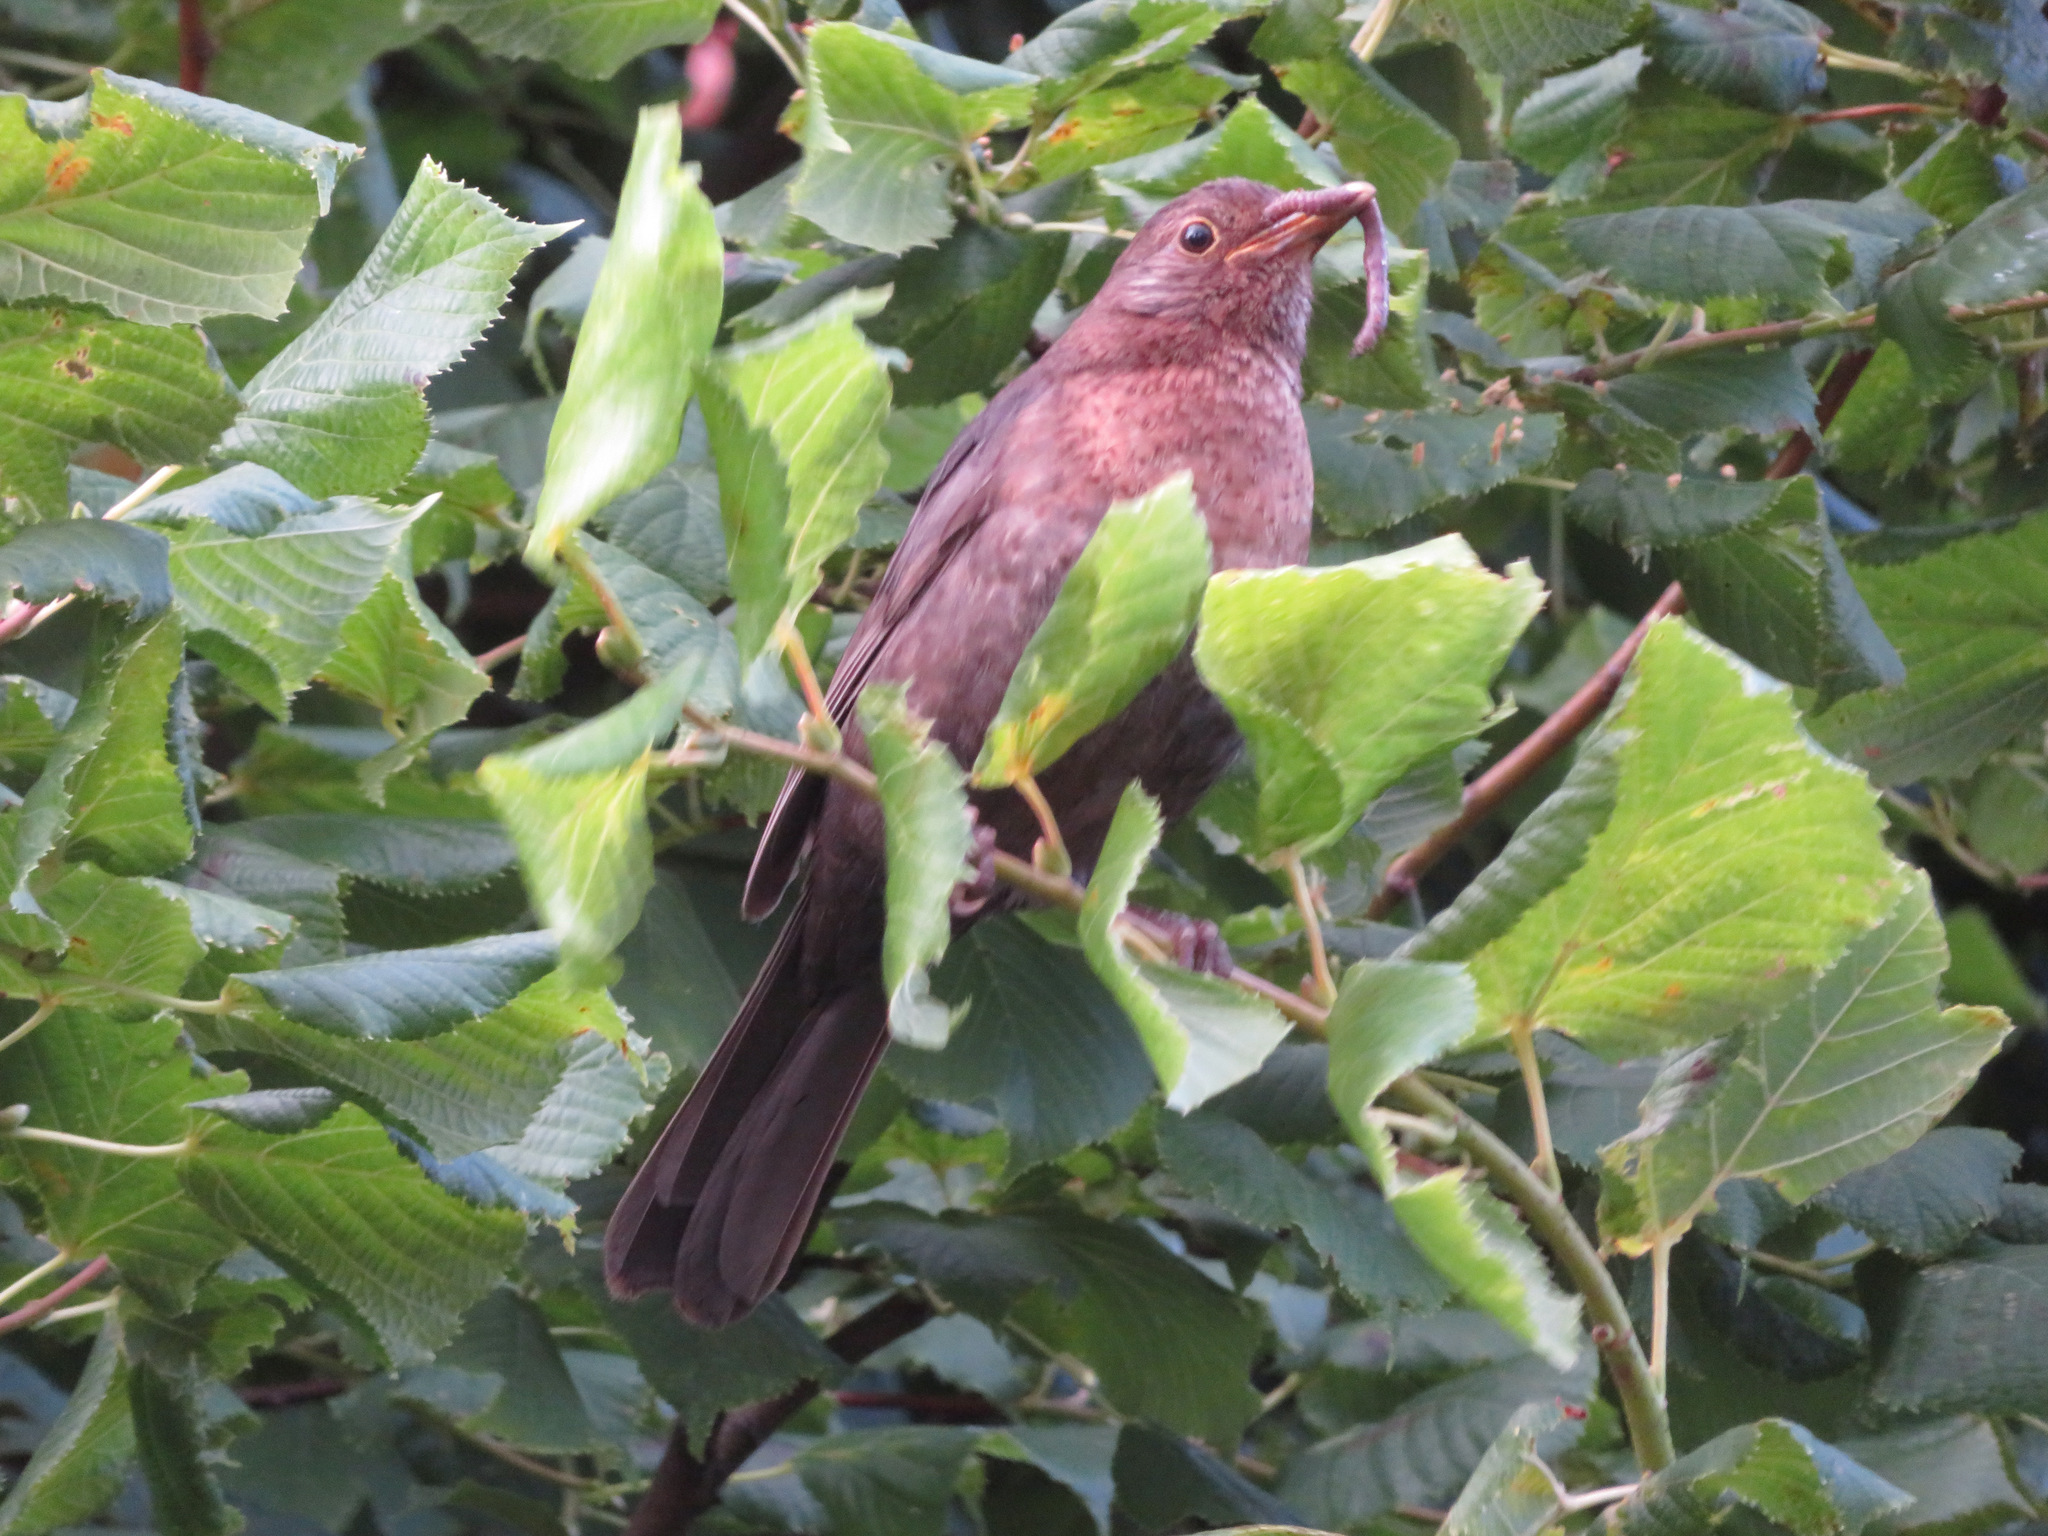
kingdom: Animalia
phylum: Chordata
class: Aves
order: Passeriformes
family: Turdidae
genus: Turdus
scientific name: Turdus merula
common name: Common blackbird
